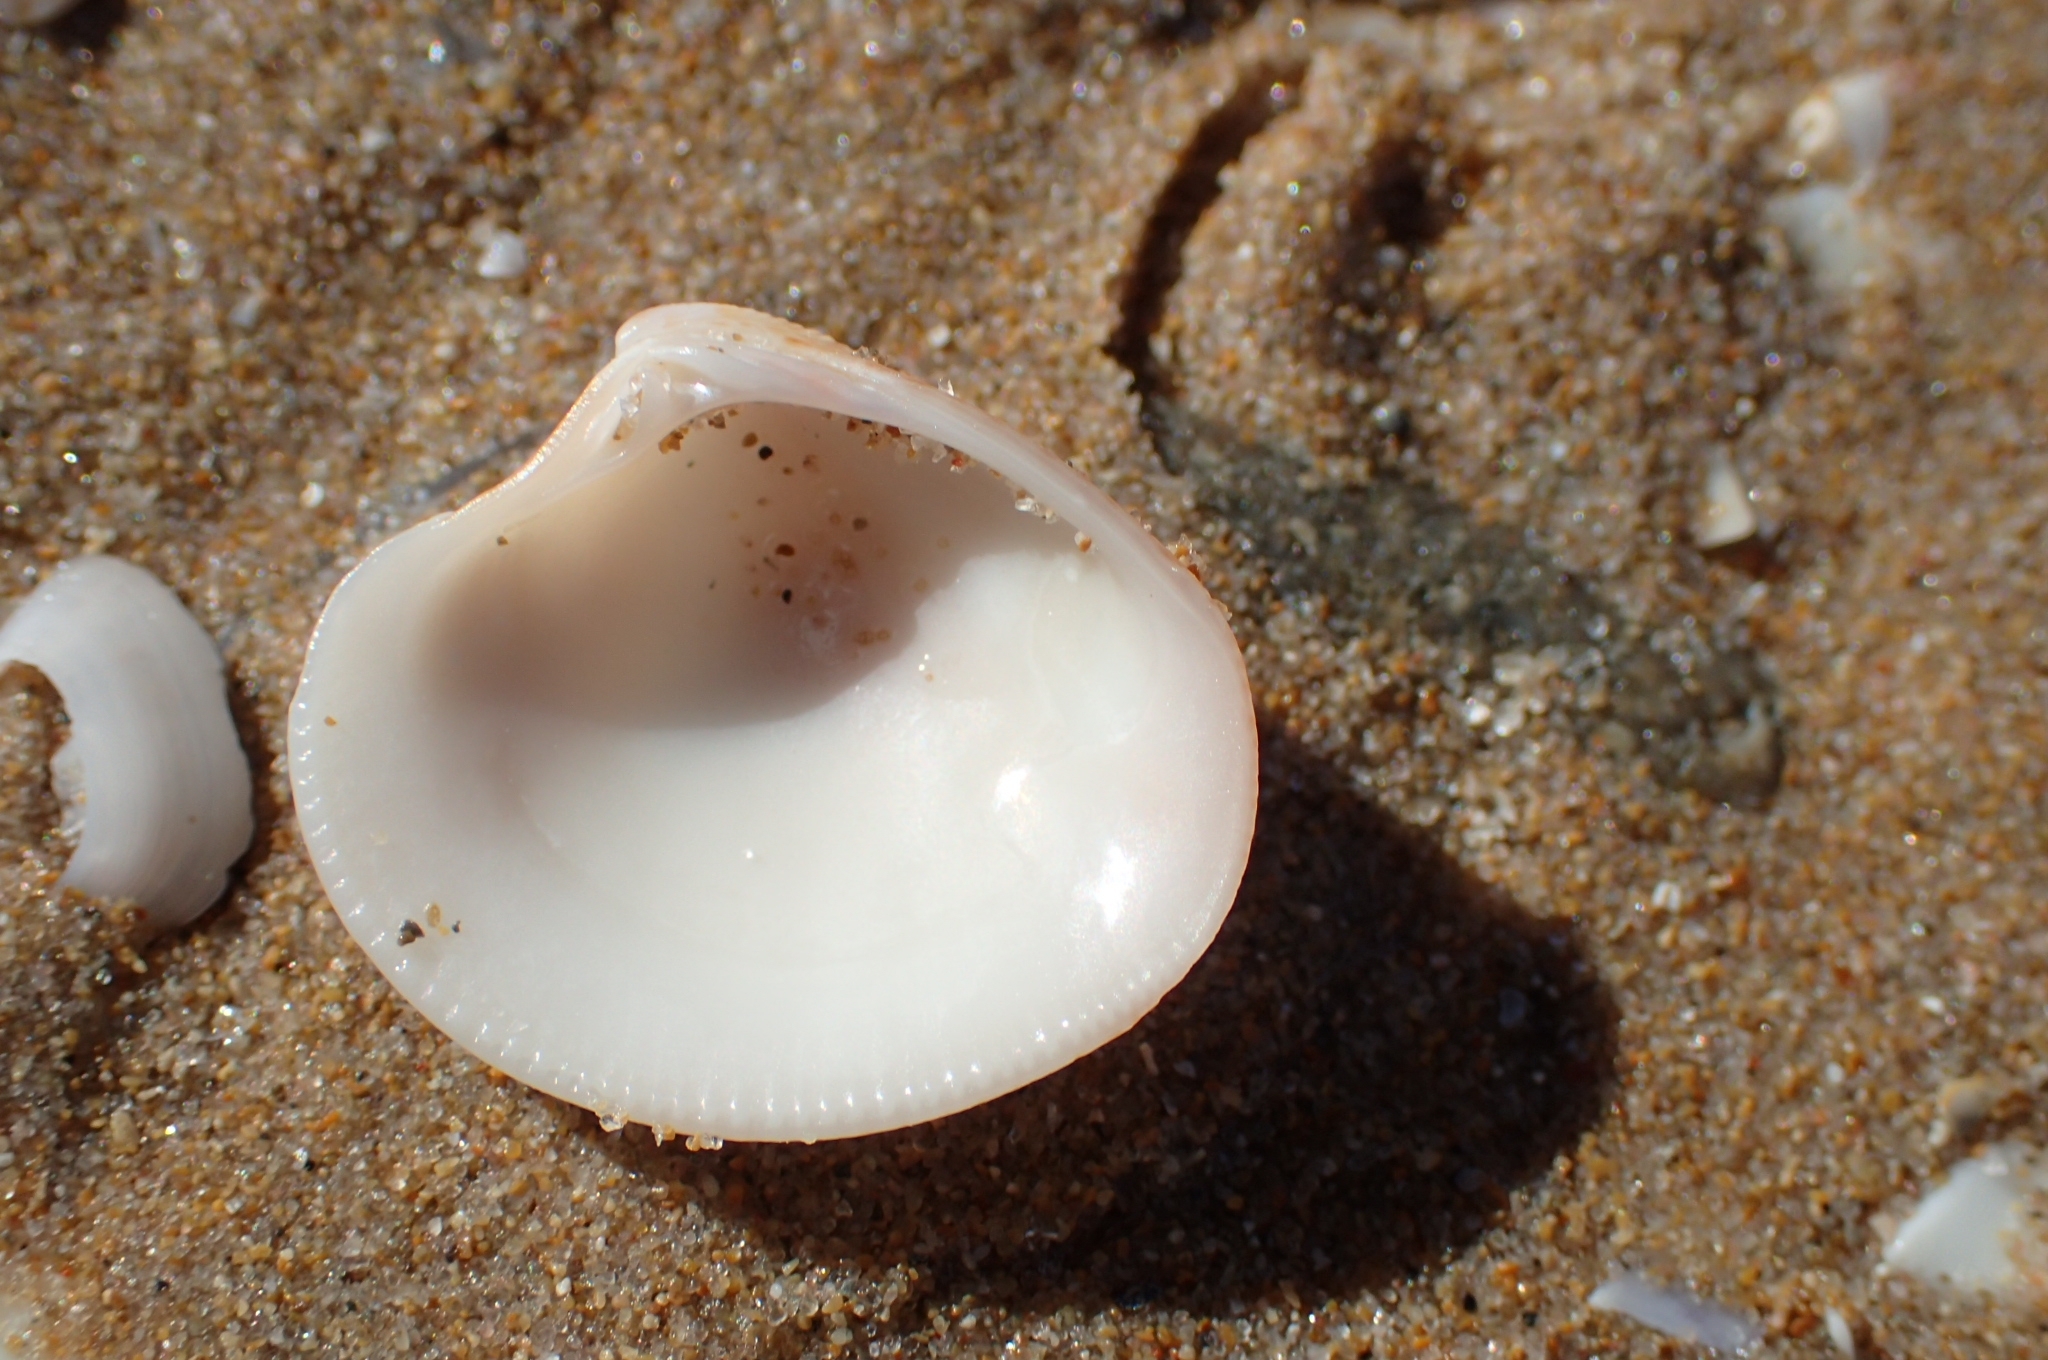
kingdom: Animalia
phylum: Mollusca
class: Bivalvia
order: Venerida
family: Veneridae
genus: Chamelea
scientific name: Chamelea gallina
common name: Chicken venus
